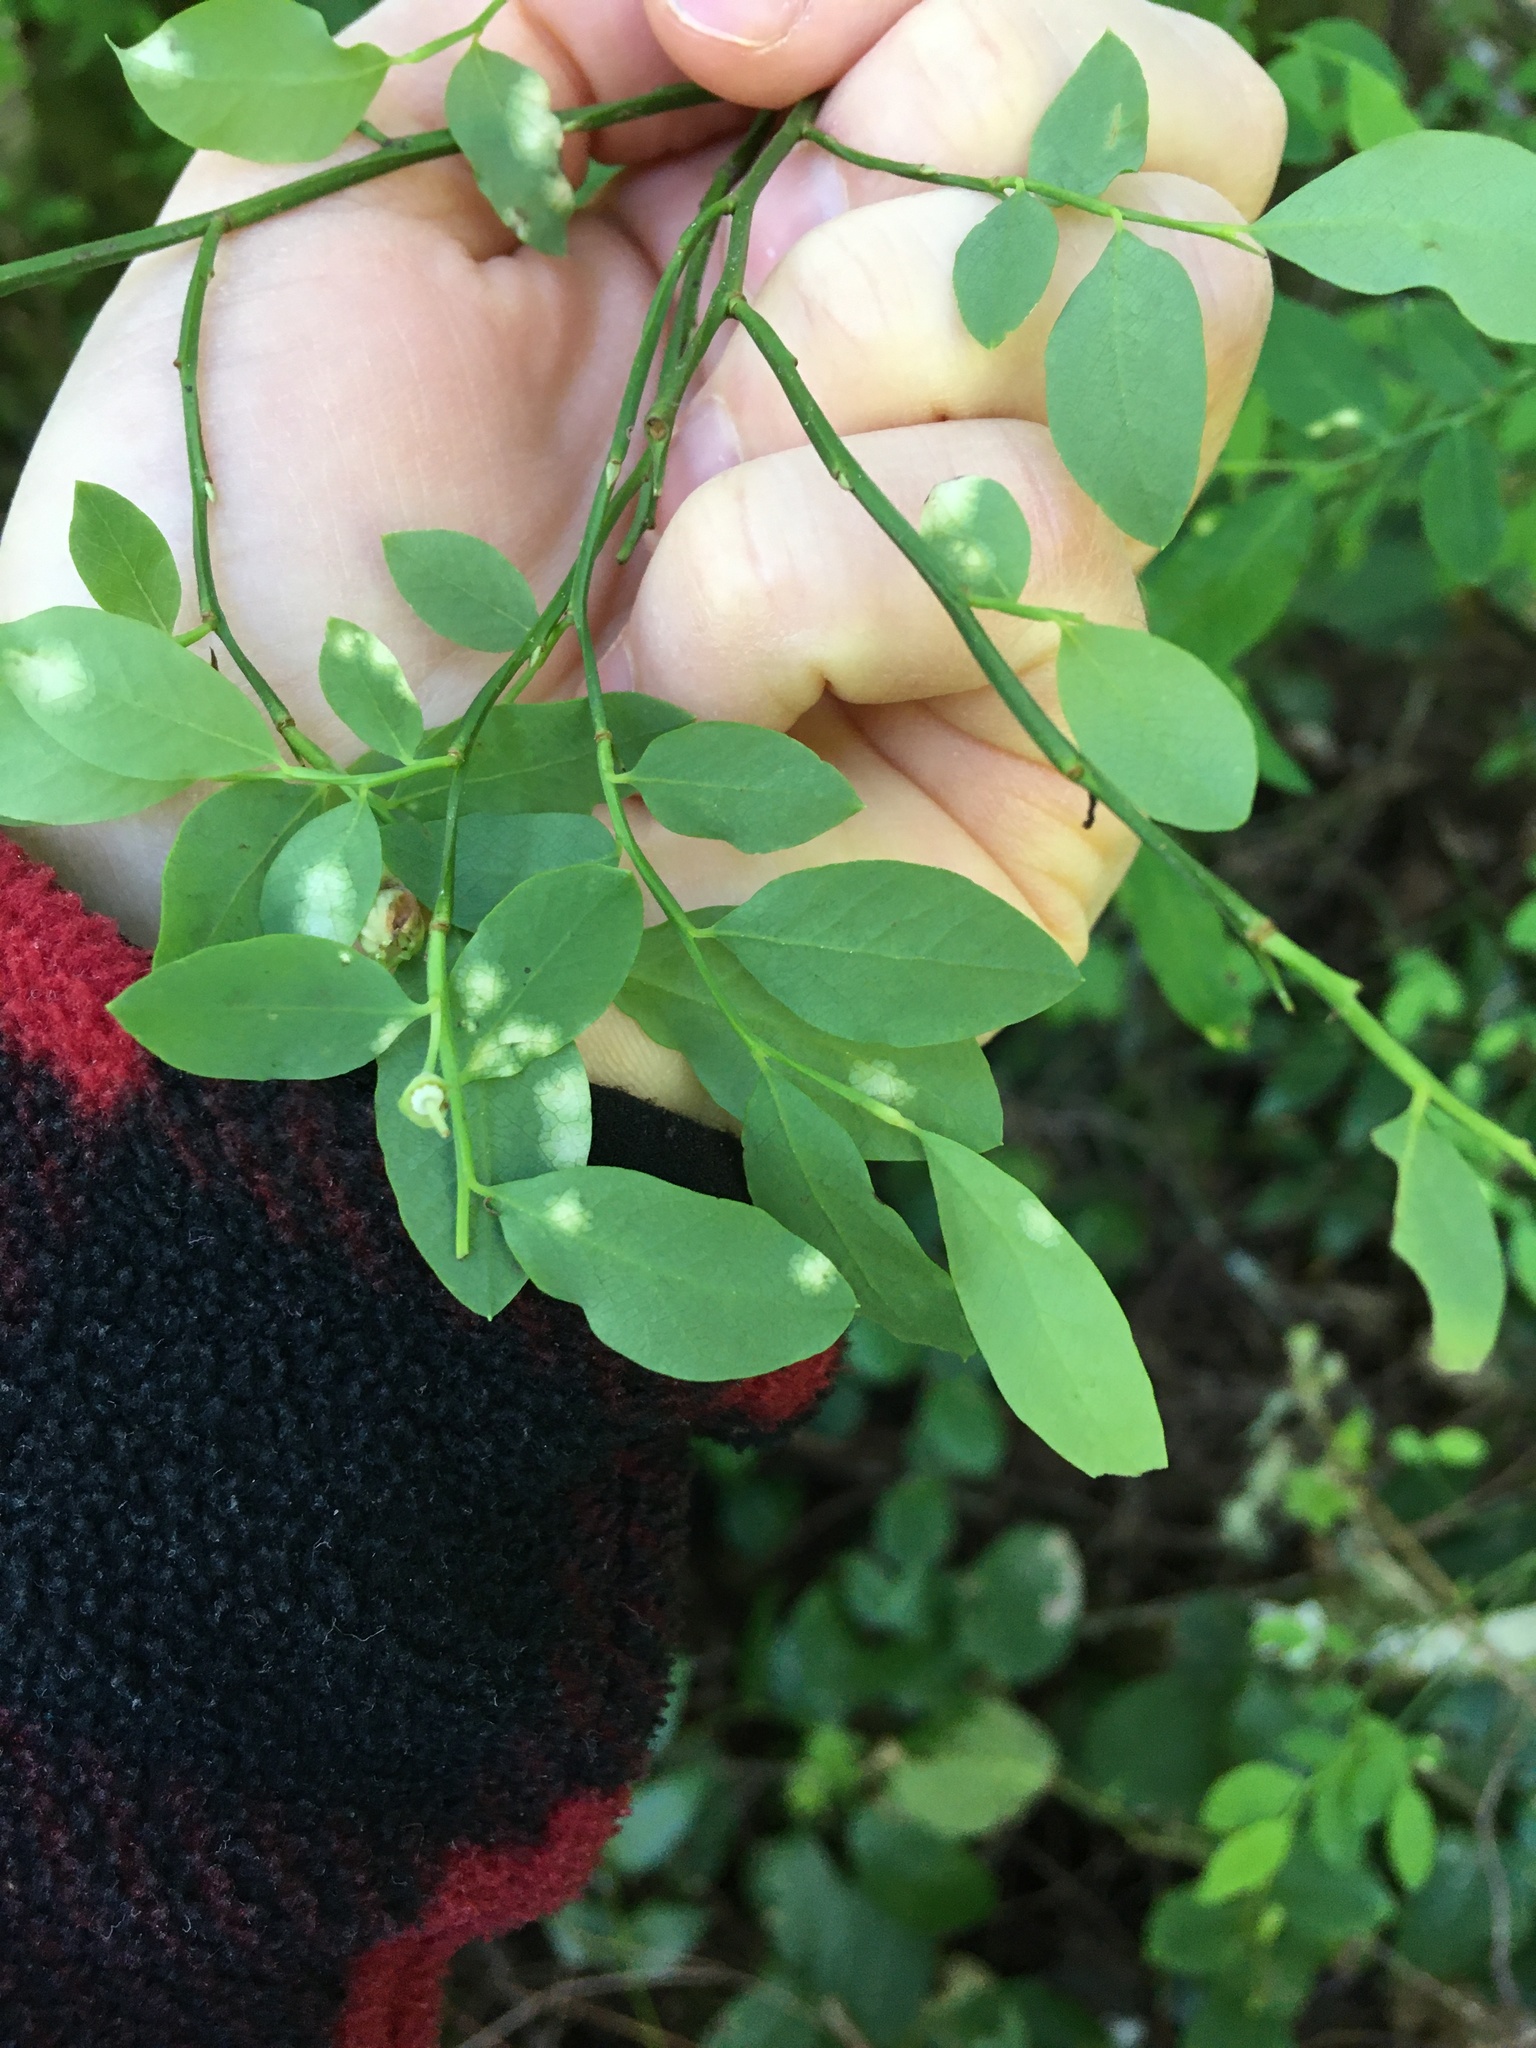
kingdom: Plantae
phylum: Tracheophyta
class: Magnoliopsida
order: Ericales
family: Ericaceae
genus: Vaccinium
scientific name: Vaccinium parvifolium
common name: Red-huckleberry
